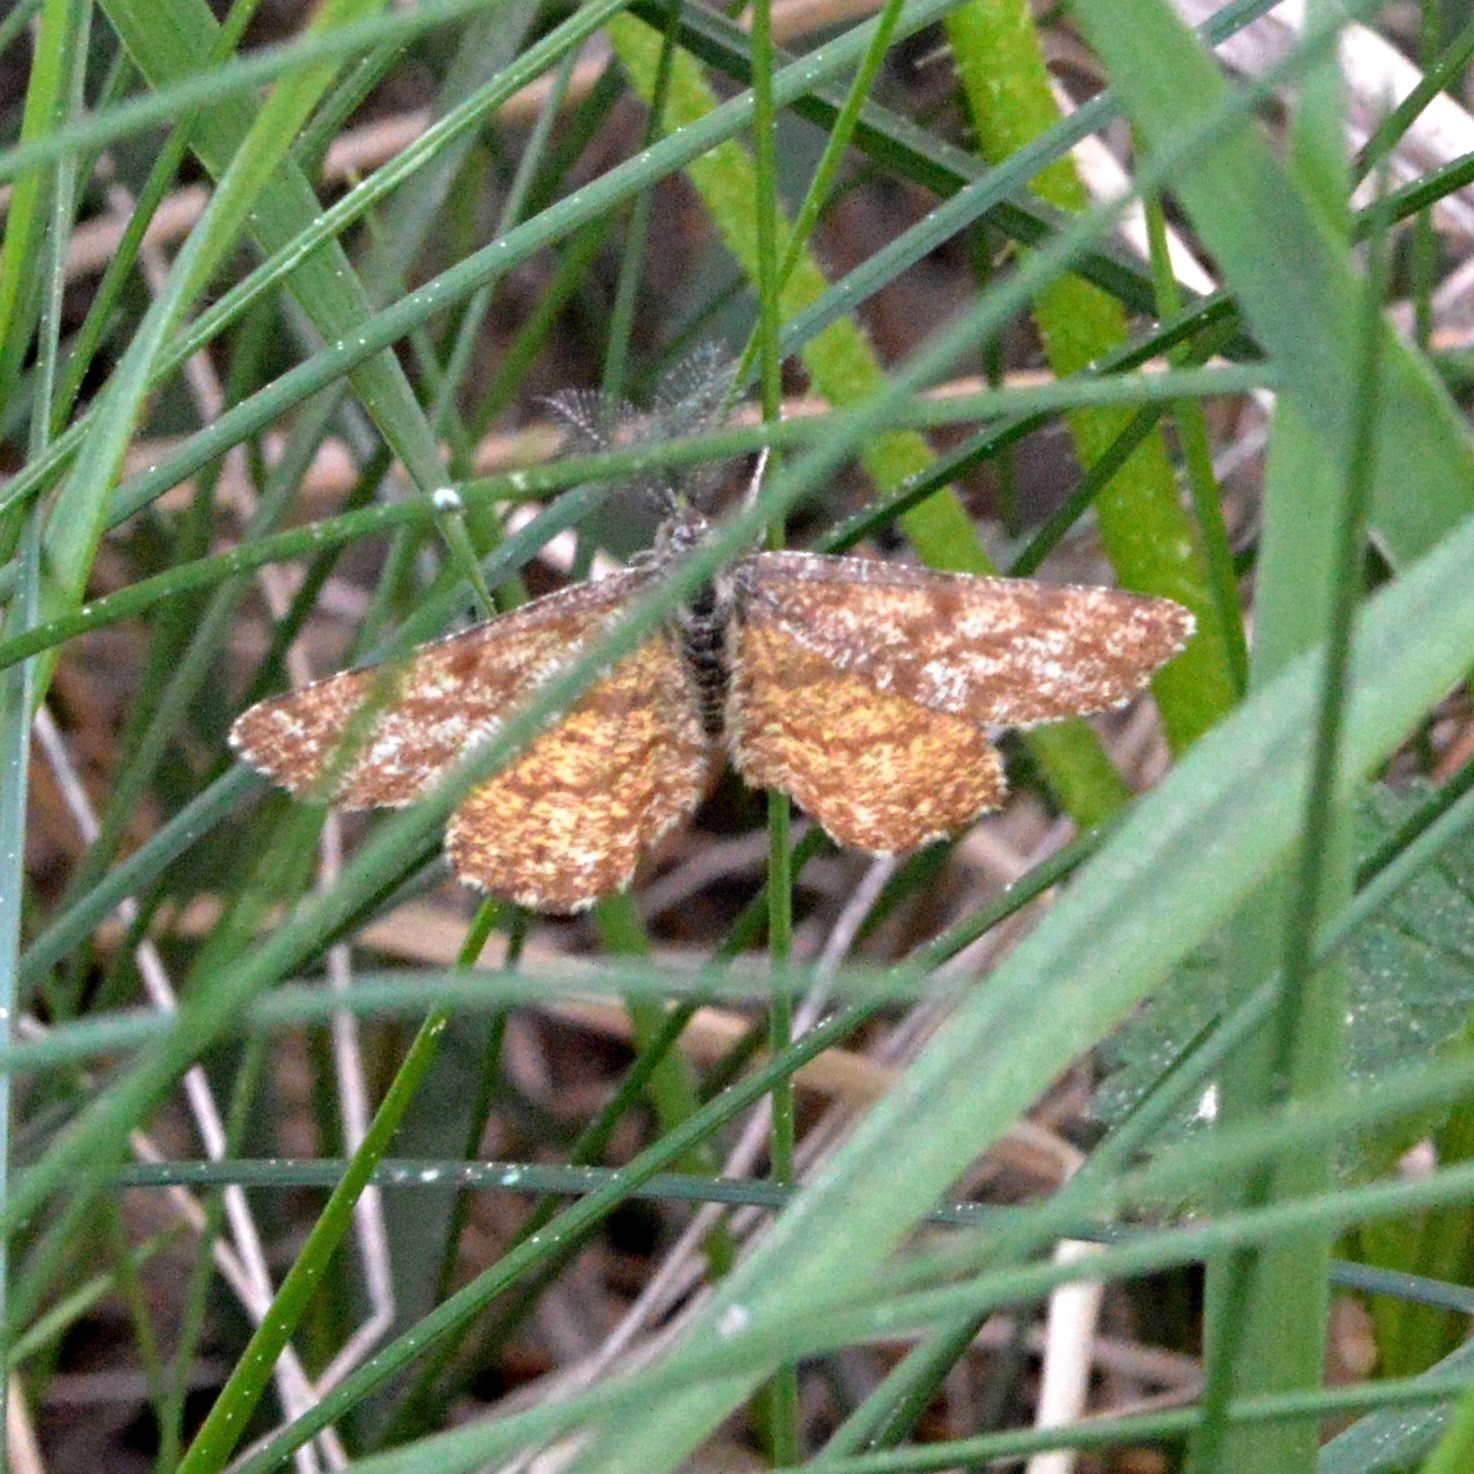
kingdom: Animalia
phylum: Arthropoda
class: Insecta
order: Lepidoptera
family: Geometridae
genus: Ematurga
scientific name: Ematurga atomaria
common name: Common heath
